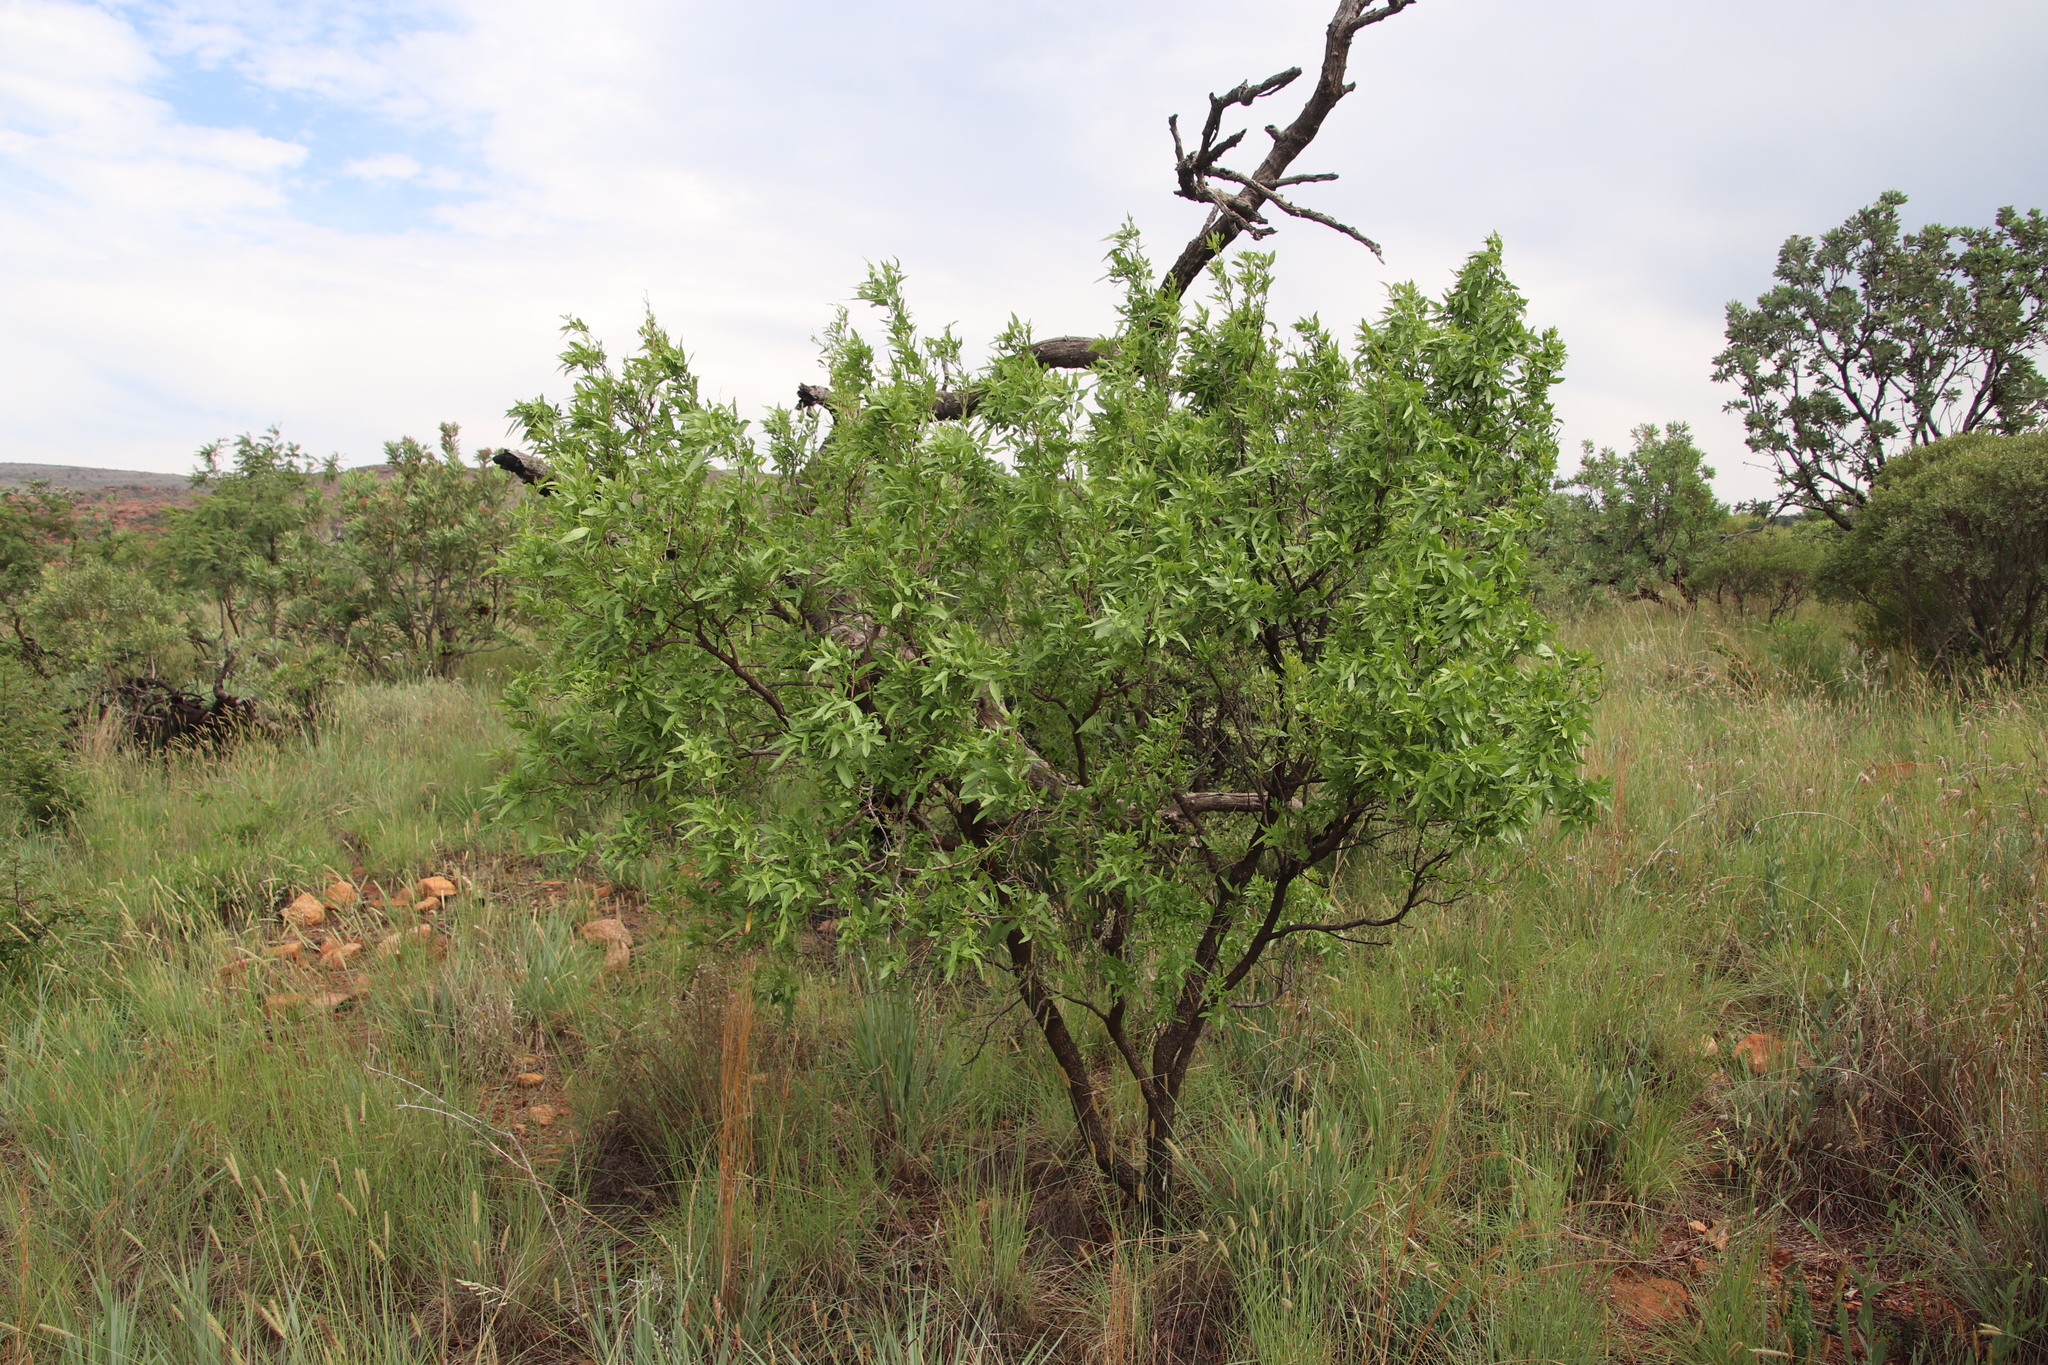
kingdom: Plantae
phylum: Tracheophyta
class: Magnoliopsida
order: Sapindales
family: Anacardiaceae
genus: Searsia
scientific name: Searsia leptodictya
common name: Mountain karee
